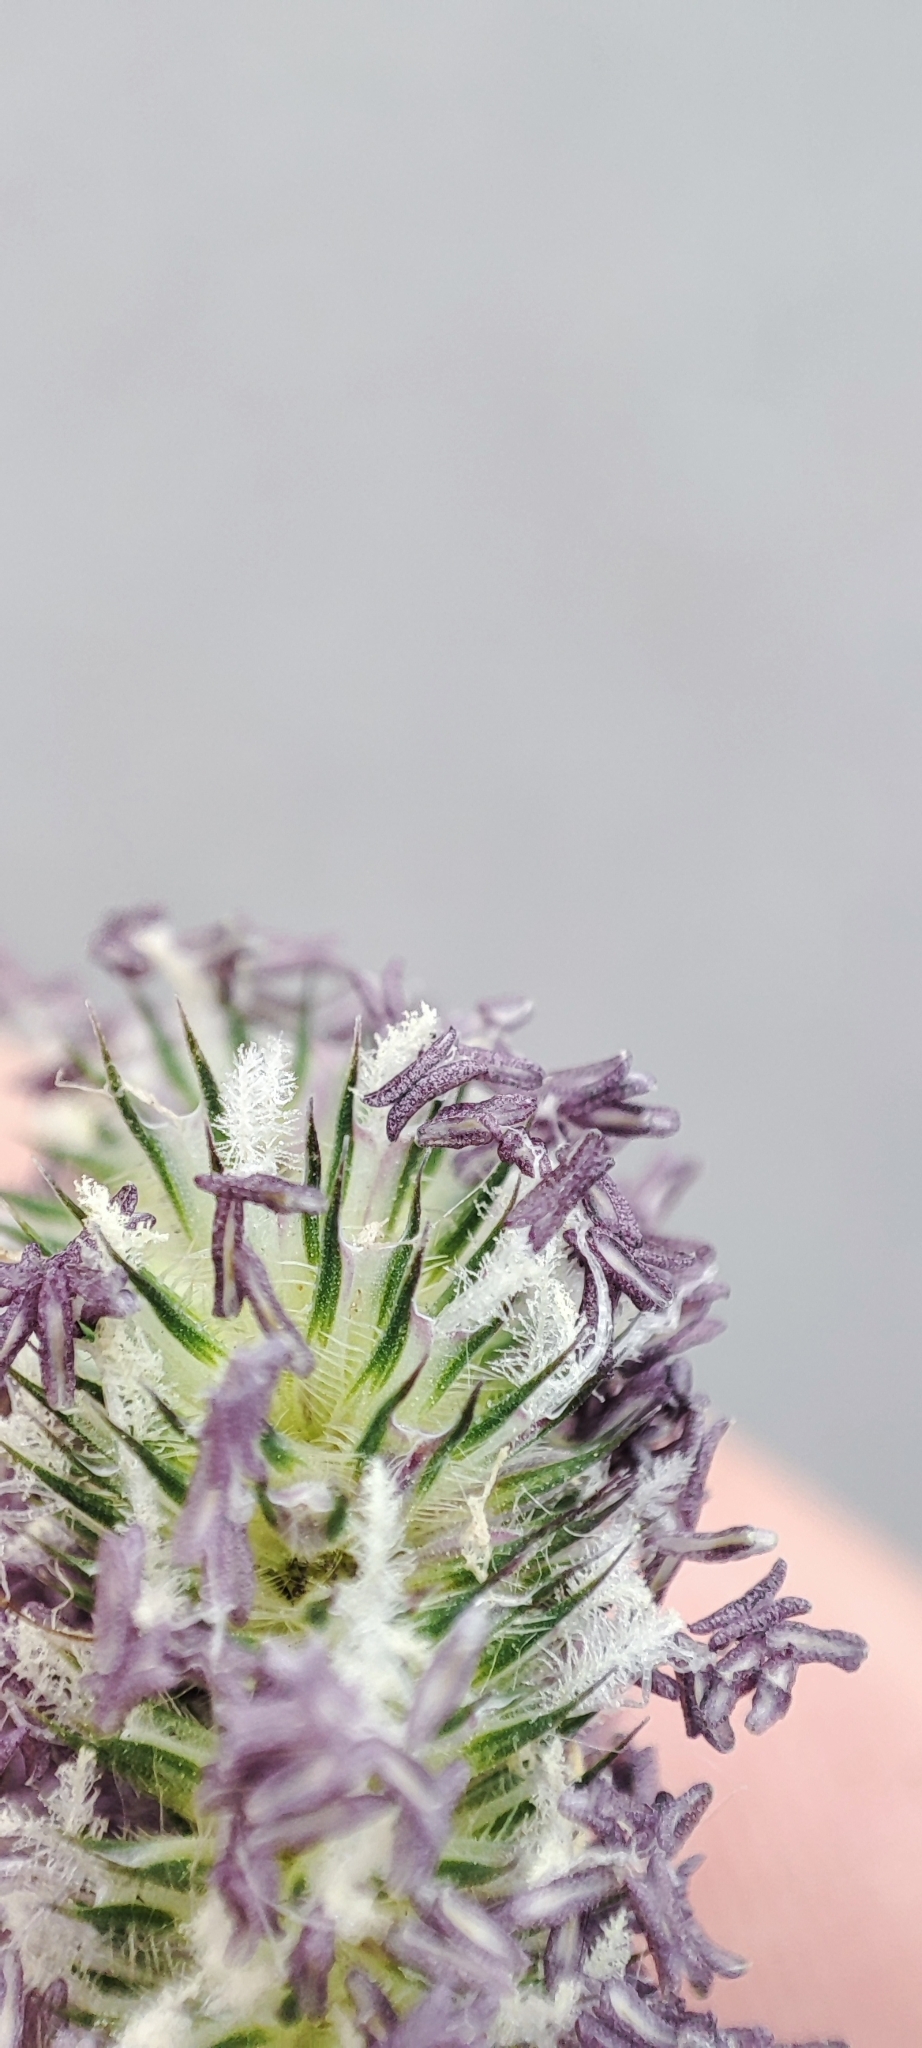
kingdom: Plantae
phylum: Tracheophyta
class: Liliopsida
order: Poales
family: Poaceae
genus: Phleum
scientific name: Phleum pratense
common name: Timothy grass
